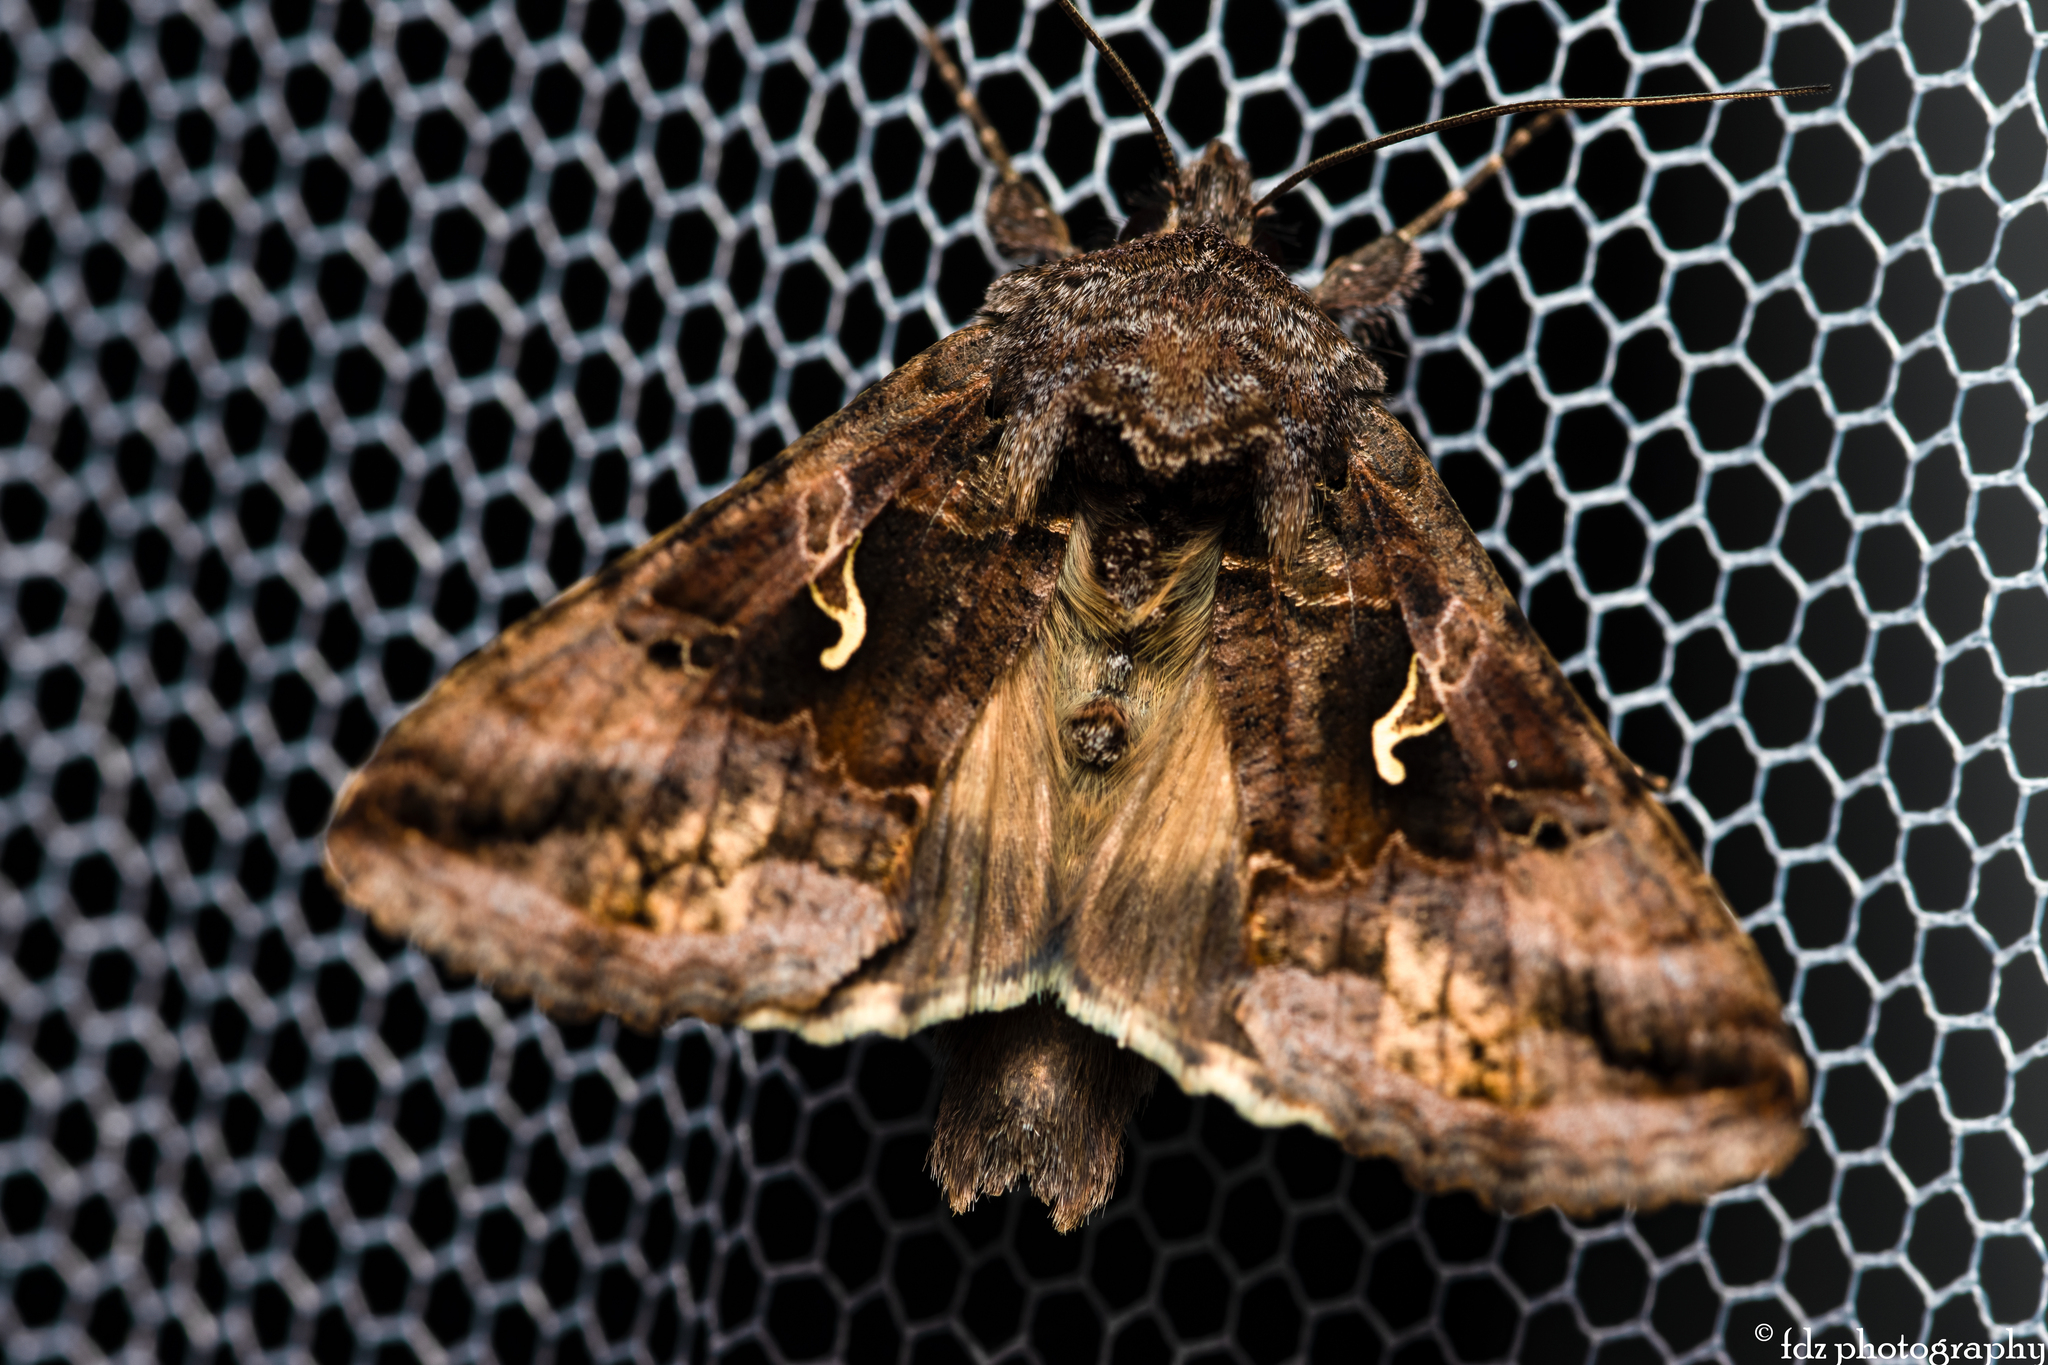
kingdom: Animalia
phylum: Arthropoda
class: Insecta
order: Lepidoptera
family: Noctuidae
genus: Autographa
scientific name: Autographa gamma
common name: Silver y
